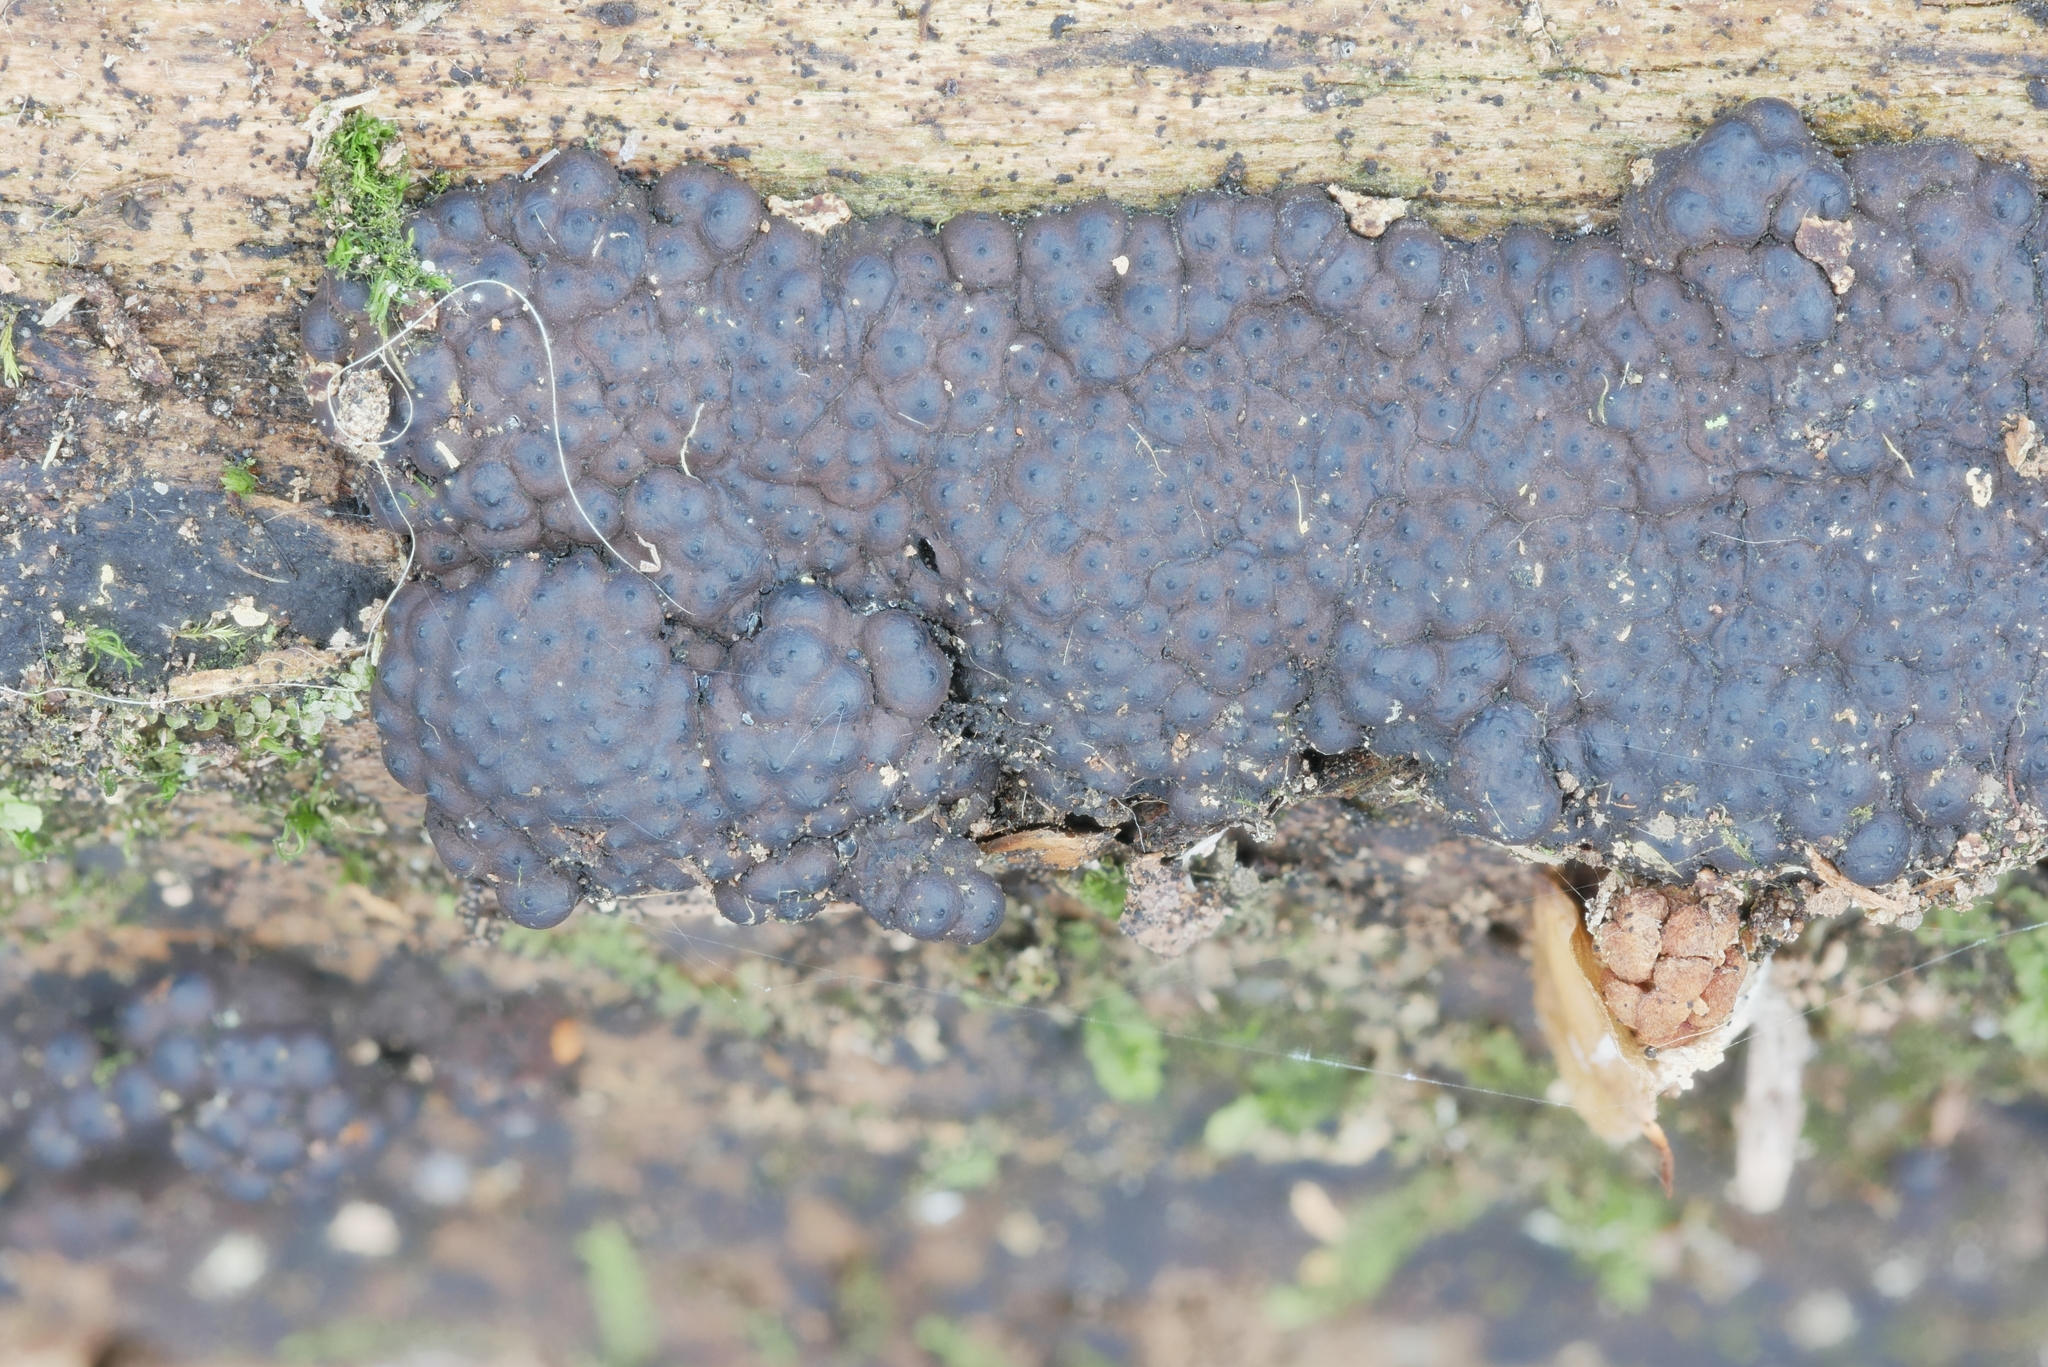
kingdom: Fungi
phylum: Ascomycota
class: Sordariomycetes
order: Xylariales
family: Hypoxylaceae
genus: Jackrogersella
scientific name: Jackrogersella multiformis
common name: Birch woodwart
